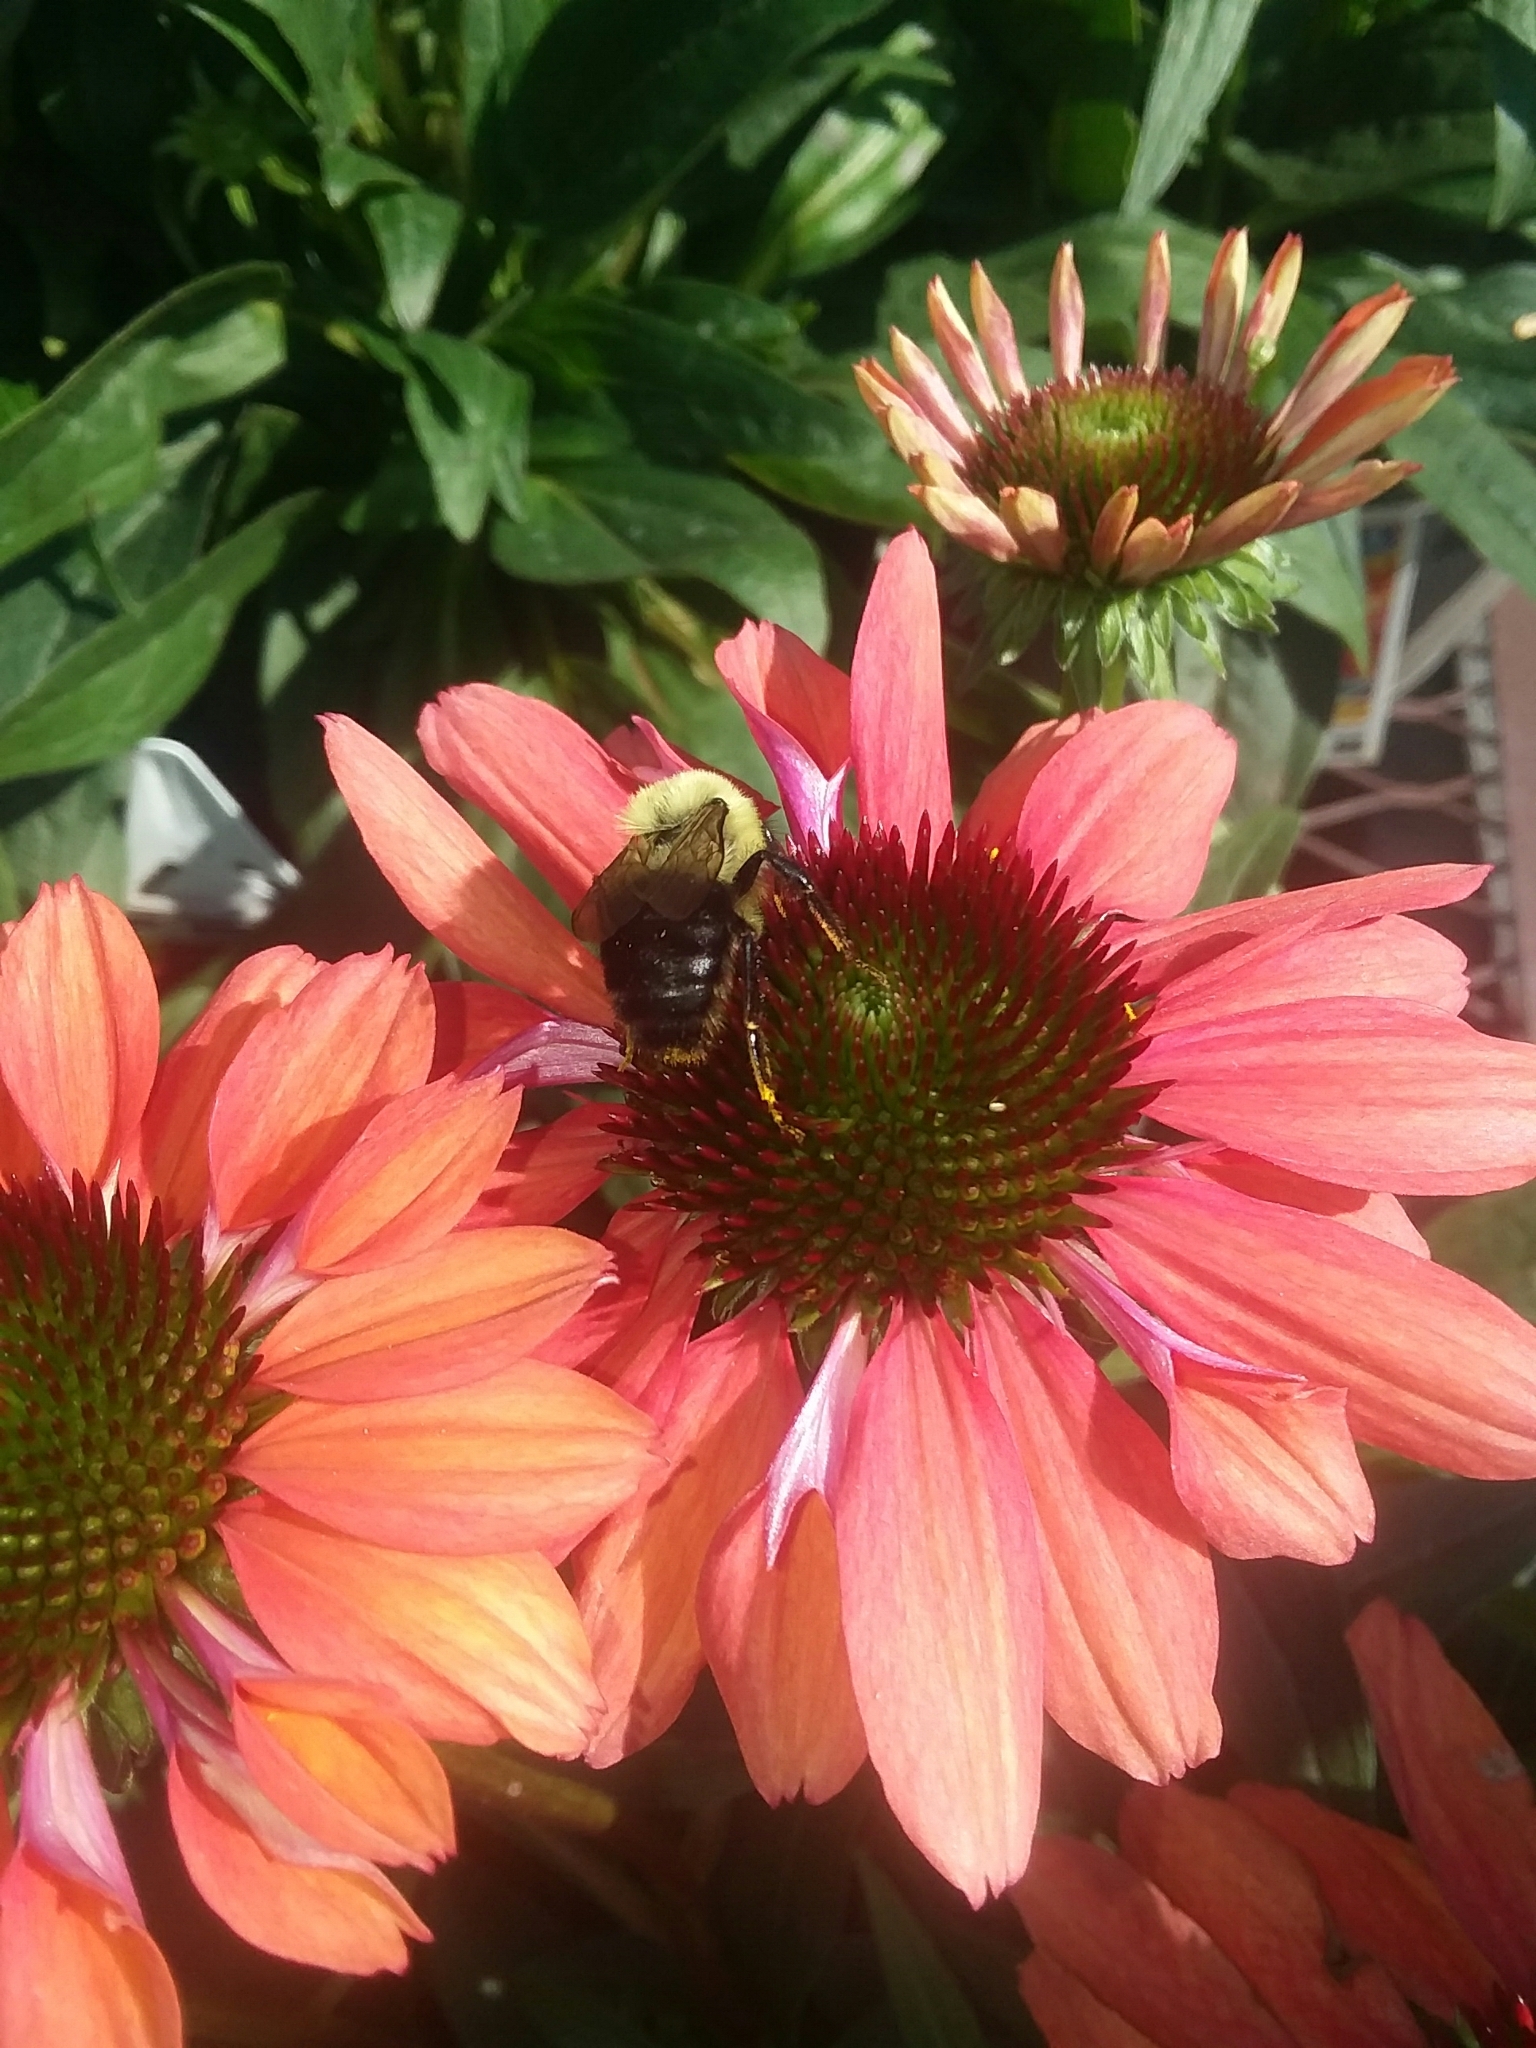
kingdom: Animalia
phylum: Arthropoda
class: Insecta
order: Hymenoptera
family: Apidae
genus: Bombus
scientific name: Bombus impatiens
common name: Common eastern bumble bee
